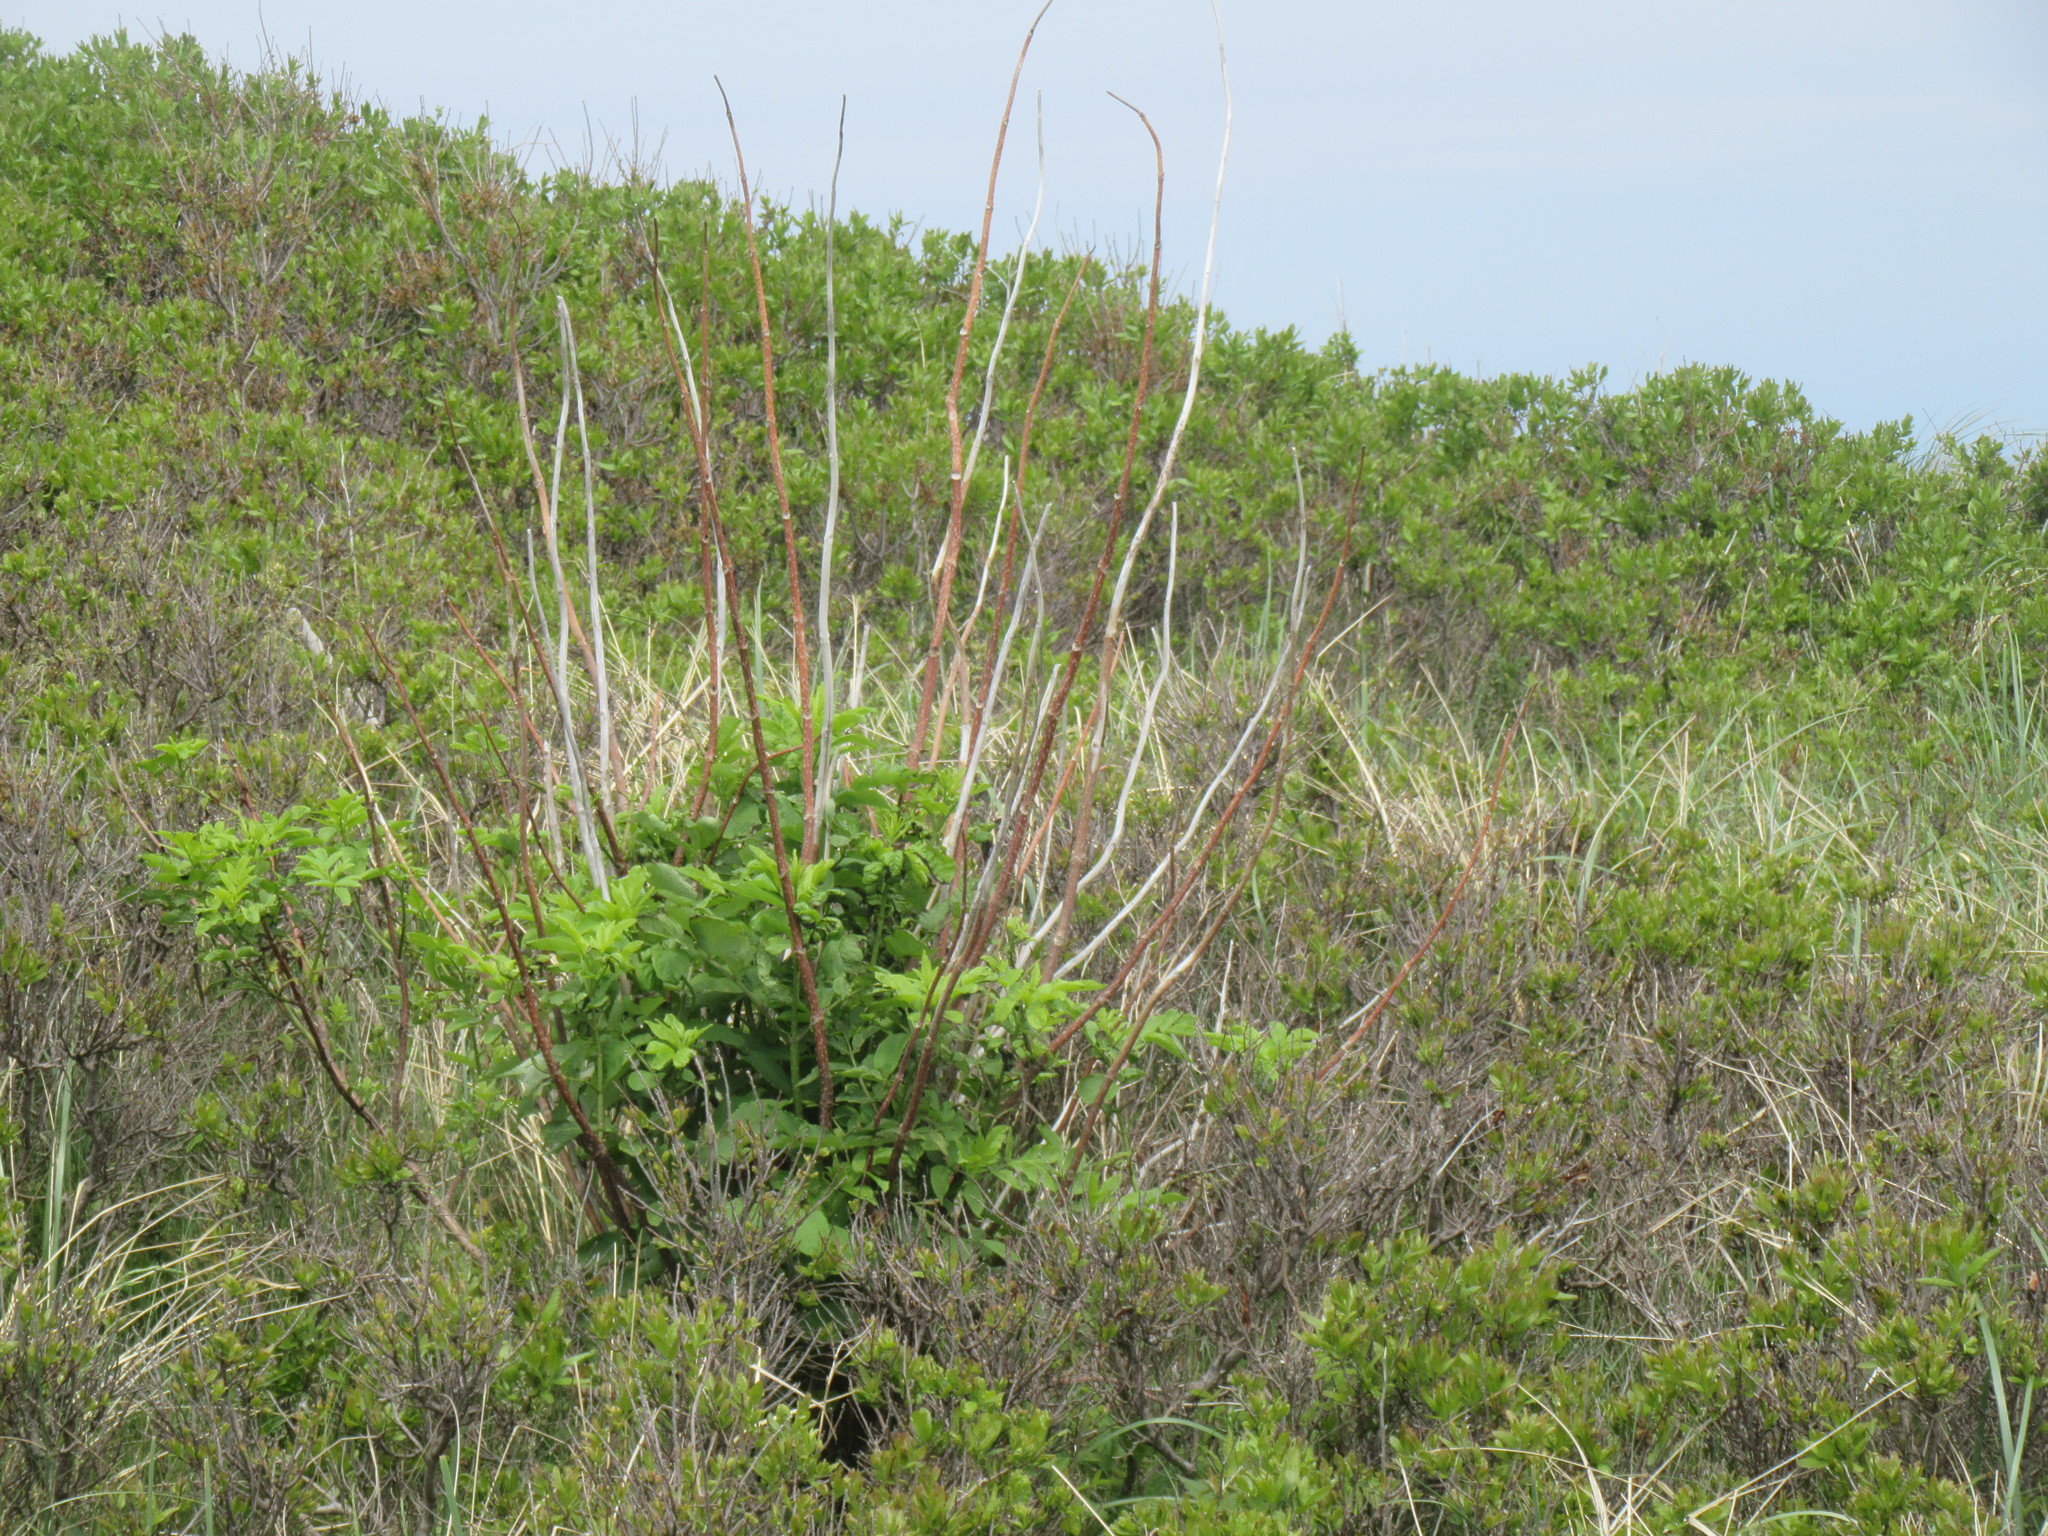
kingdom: Plantae
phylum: Tracheophyta
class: Magnoliopsida
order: Dipsacales
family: Viburnaceae
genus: Sambucus
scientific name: Sambucus racemosa
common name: Red-berried elder
